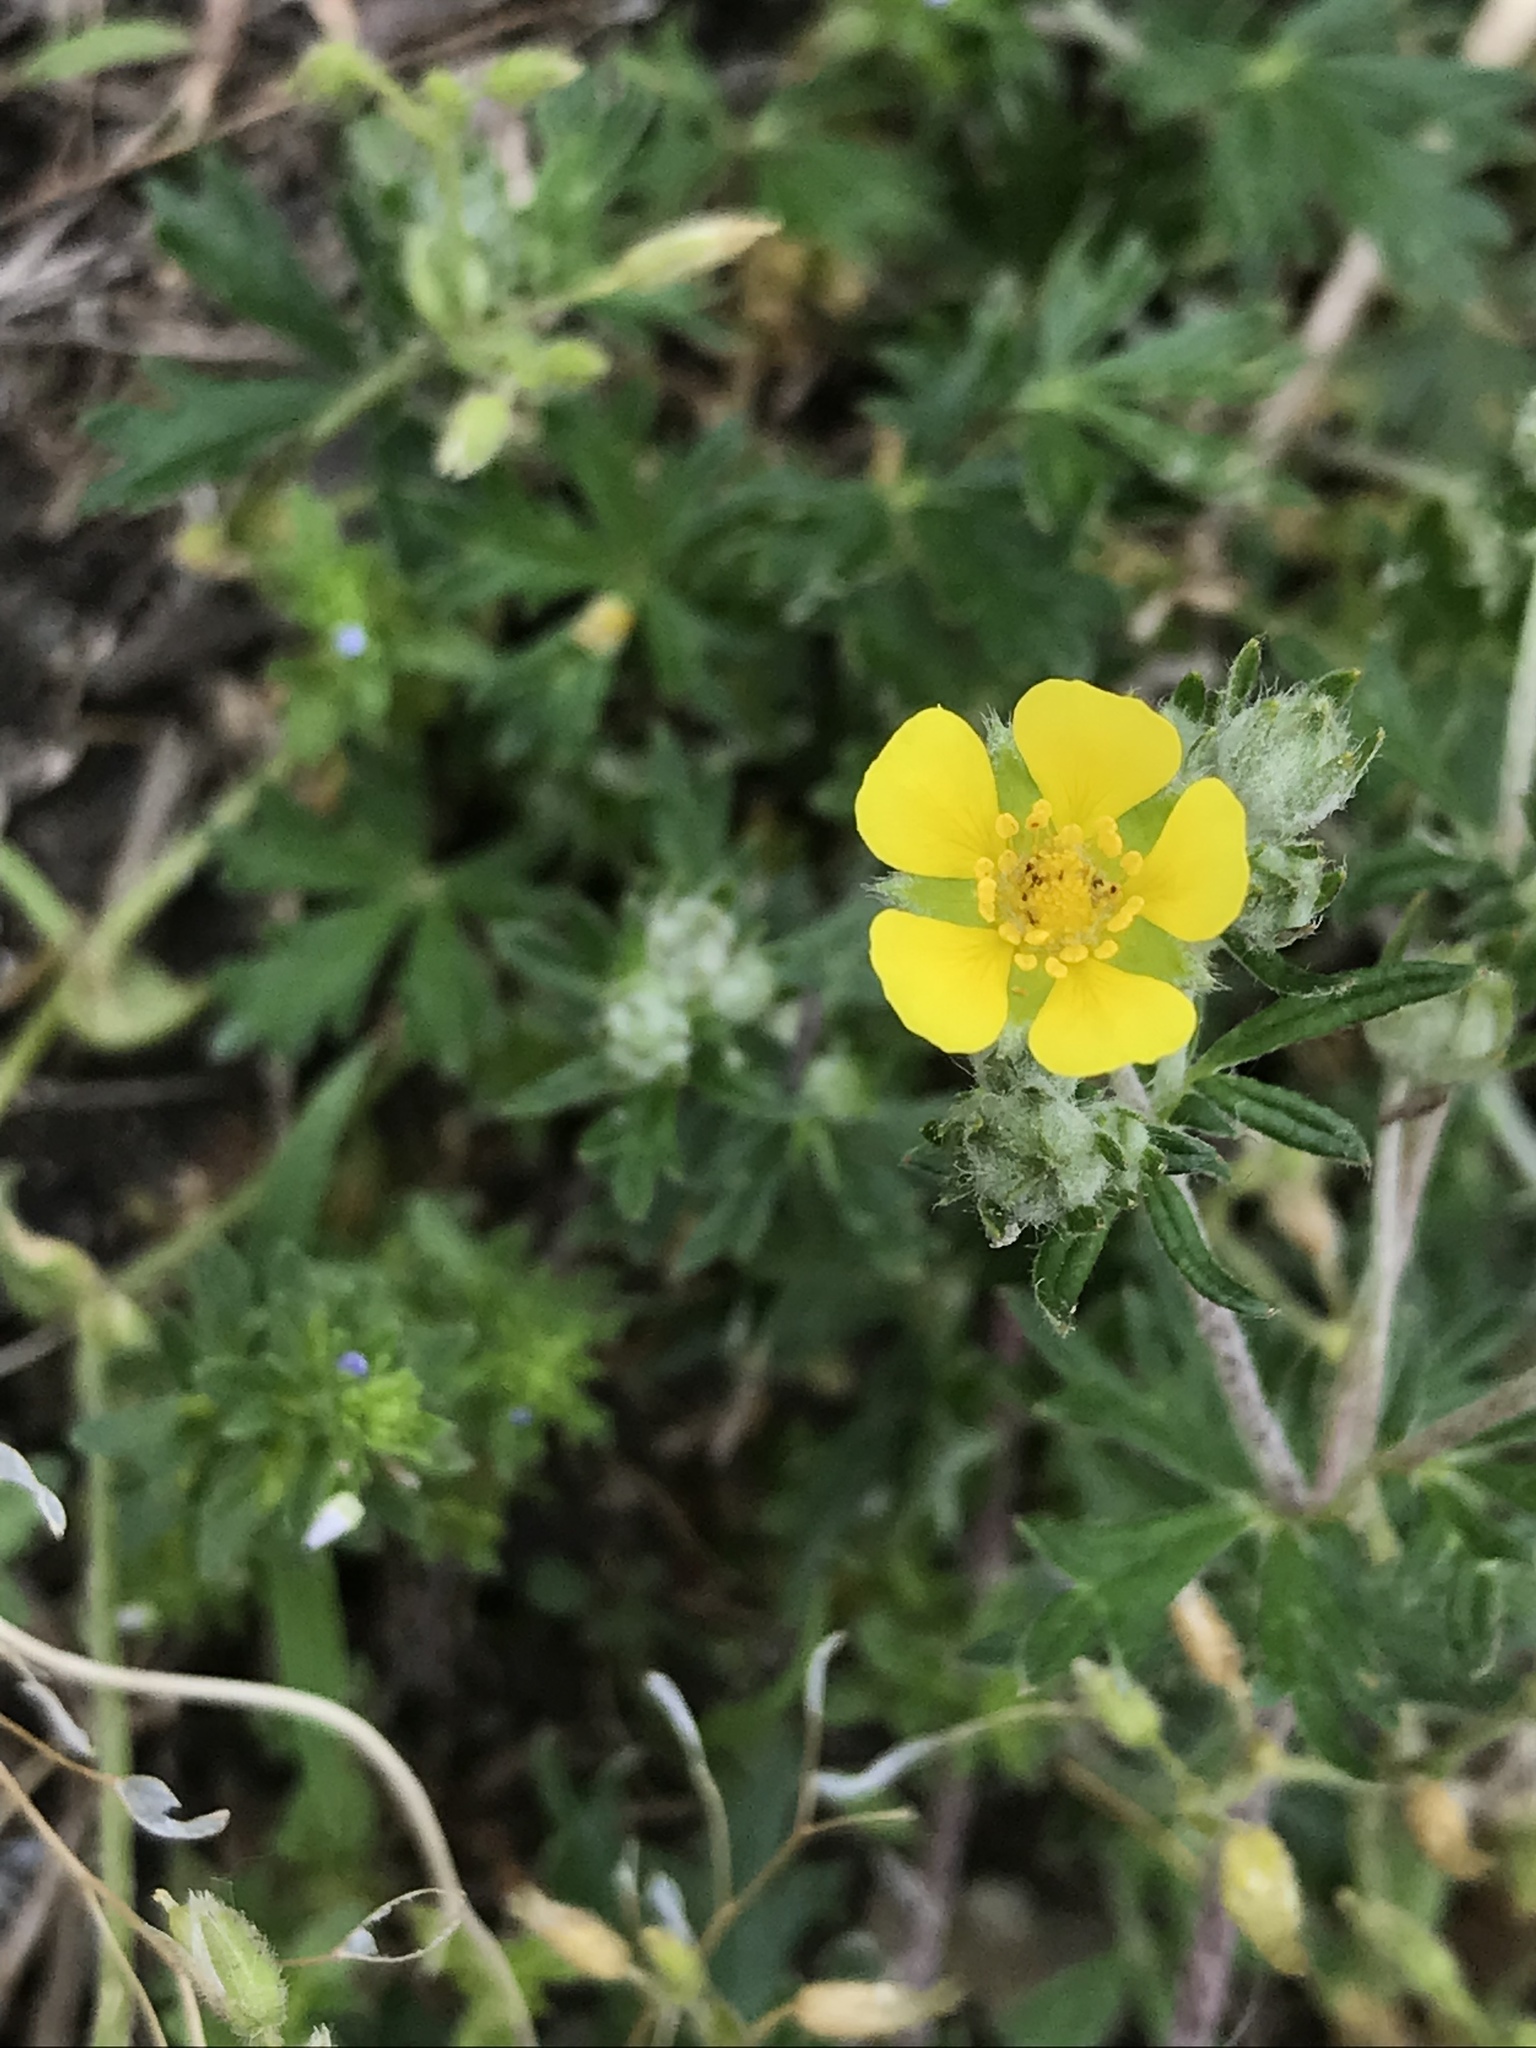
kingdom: Plantae
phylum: Tracheophyta
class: Magnoliopsida
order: Rosales
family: Rosaceae
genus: Potentilla
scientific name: Potentilla argentea
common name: Hoary cinquefoil
